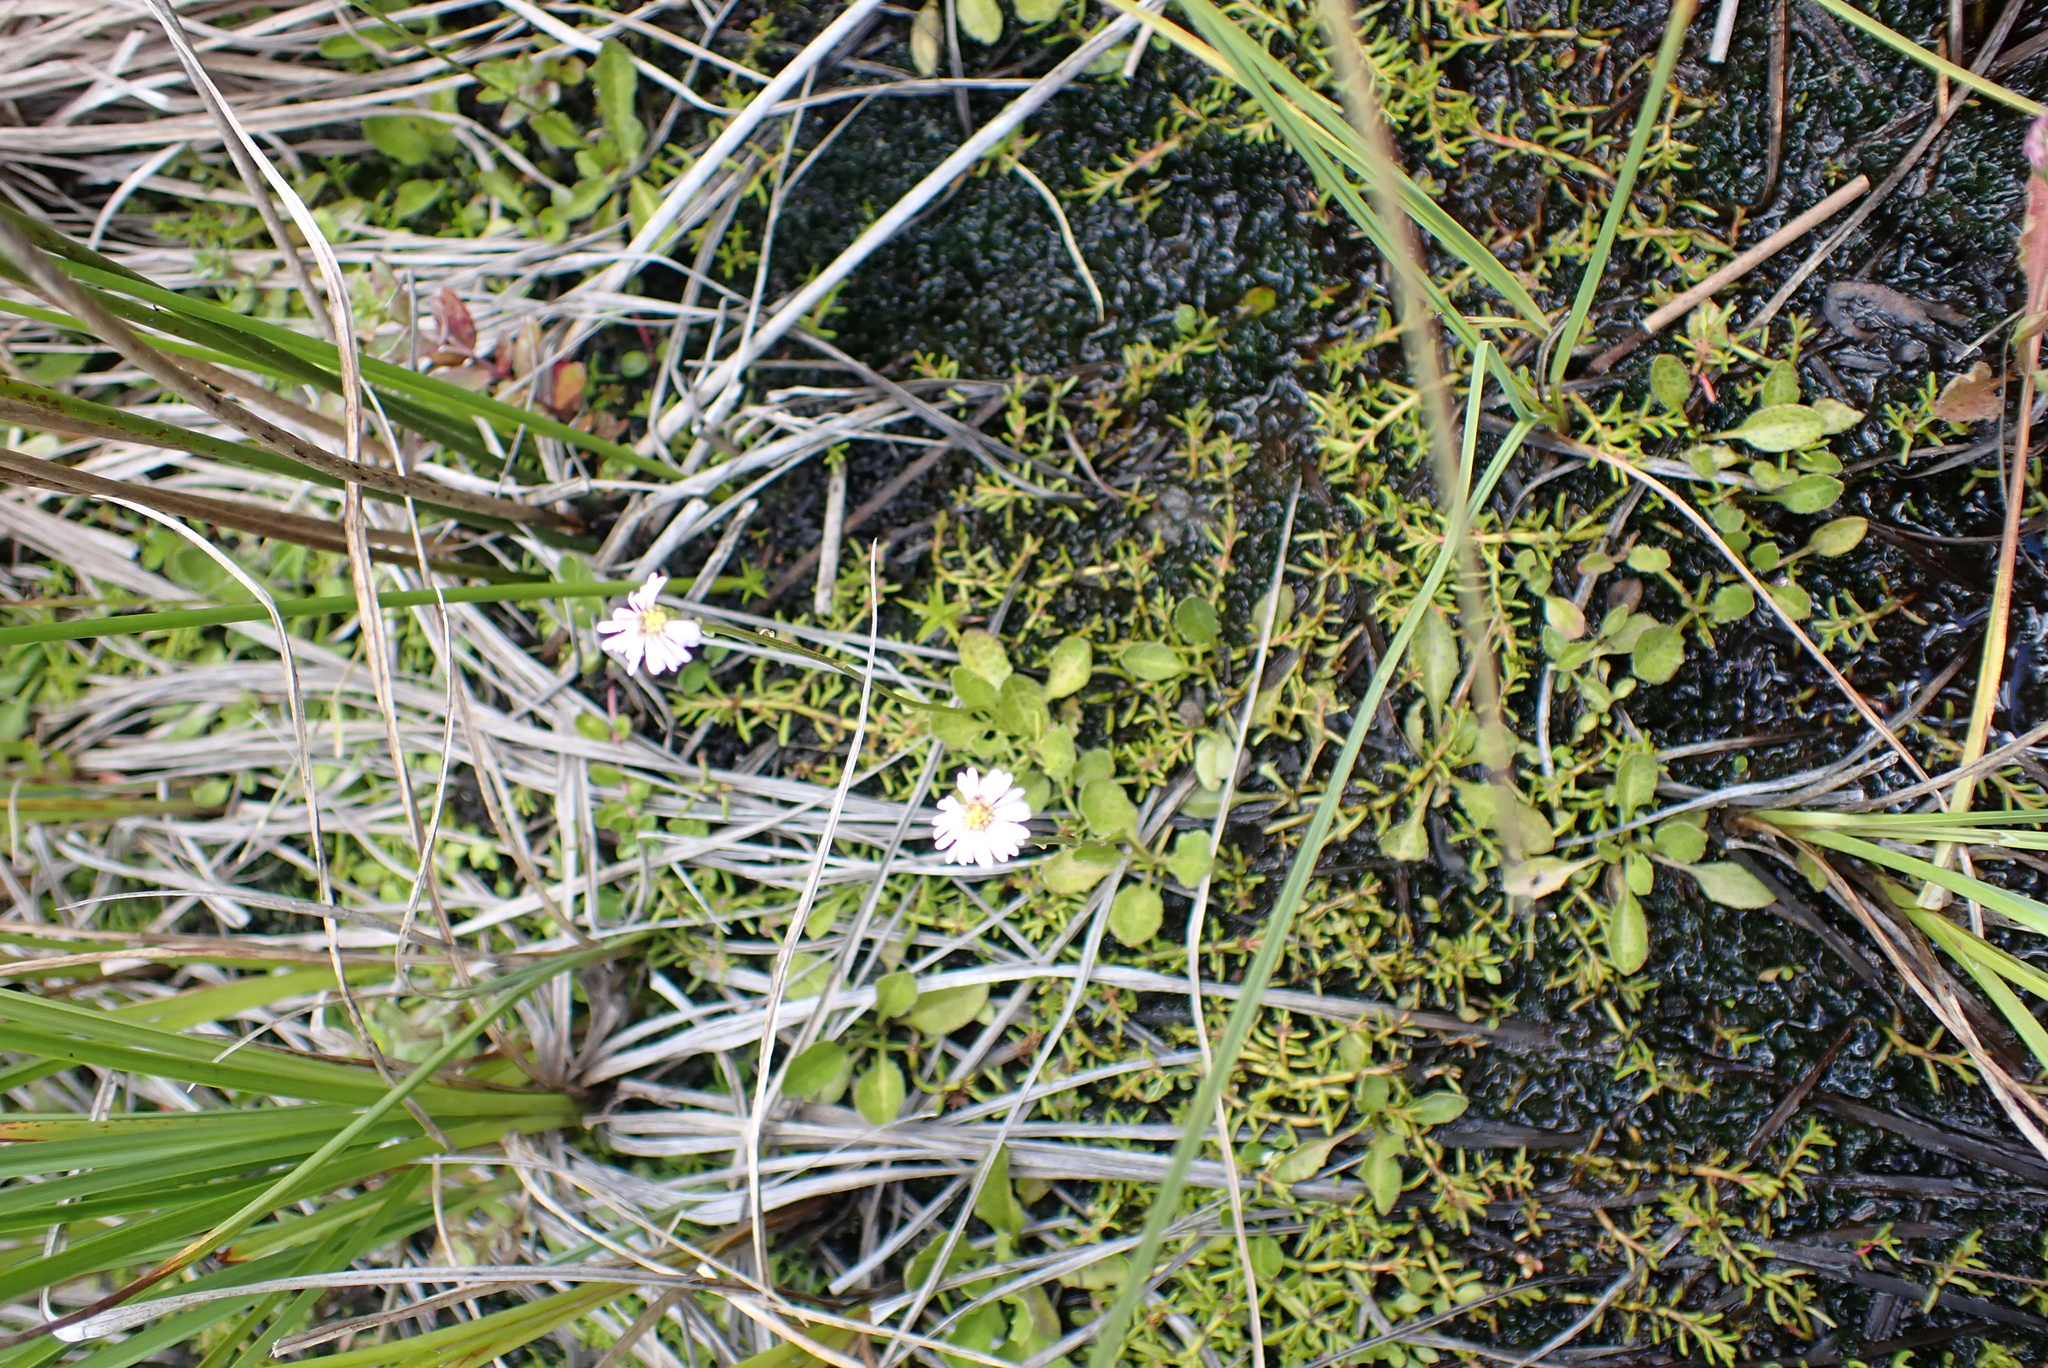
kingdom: Plantae
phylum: Tracheophyta
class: Magnoliopsida
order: Asterales
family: Asteraceae
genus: Lagenophora
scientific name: Lagenophora montana
